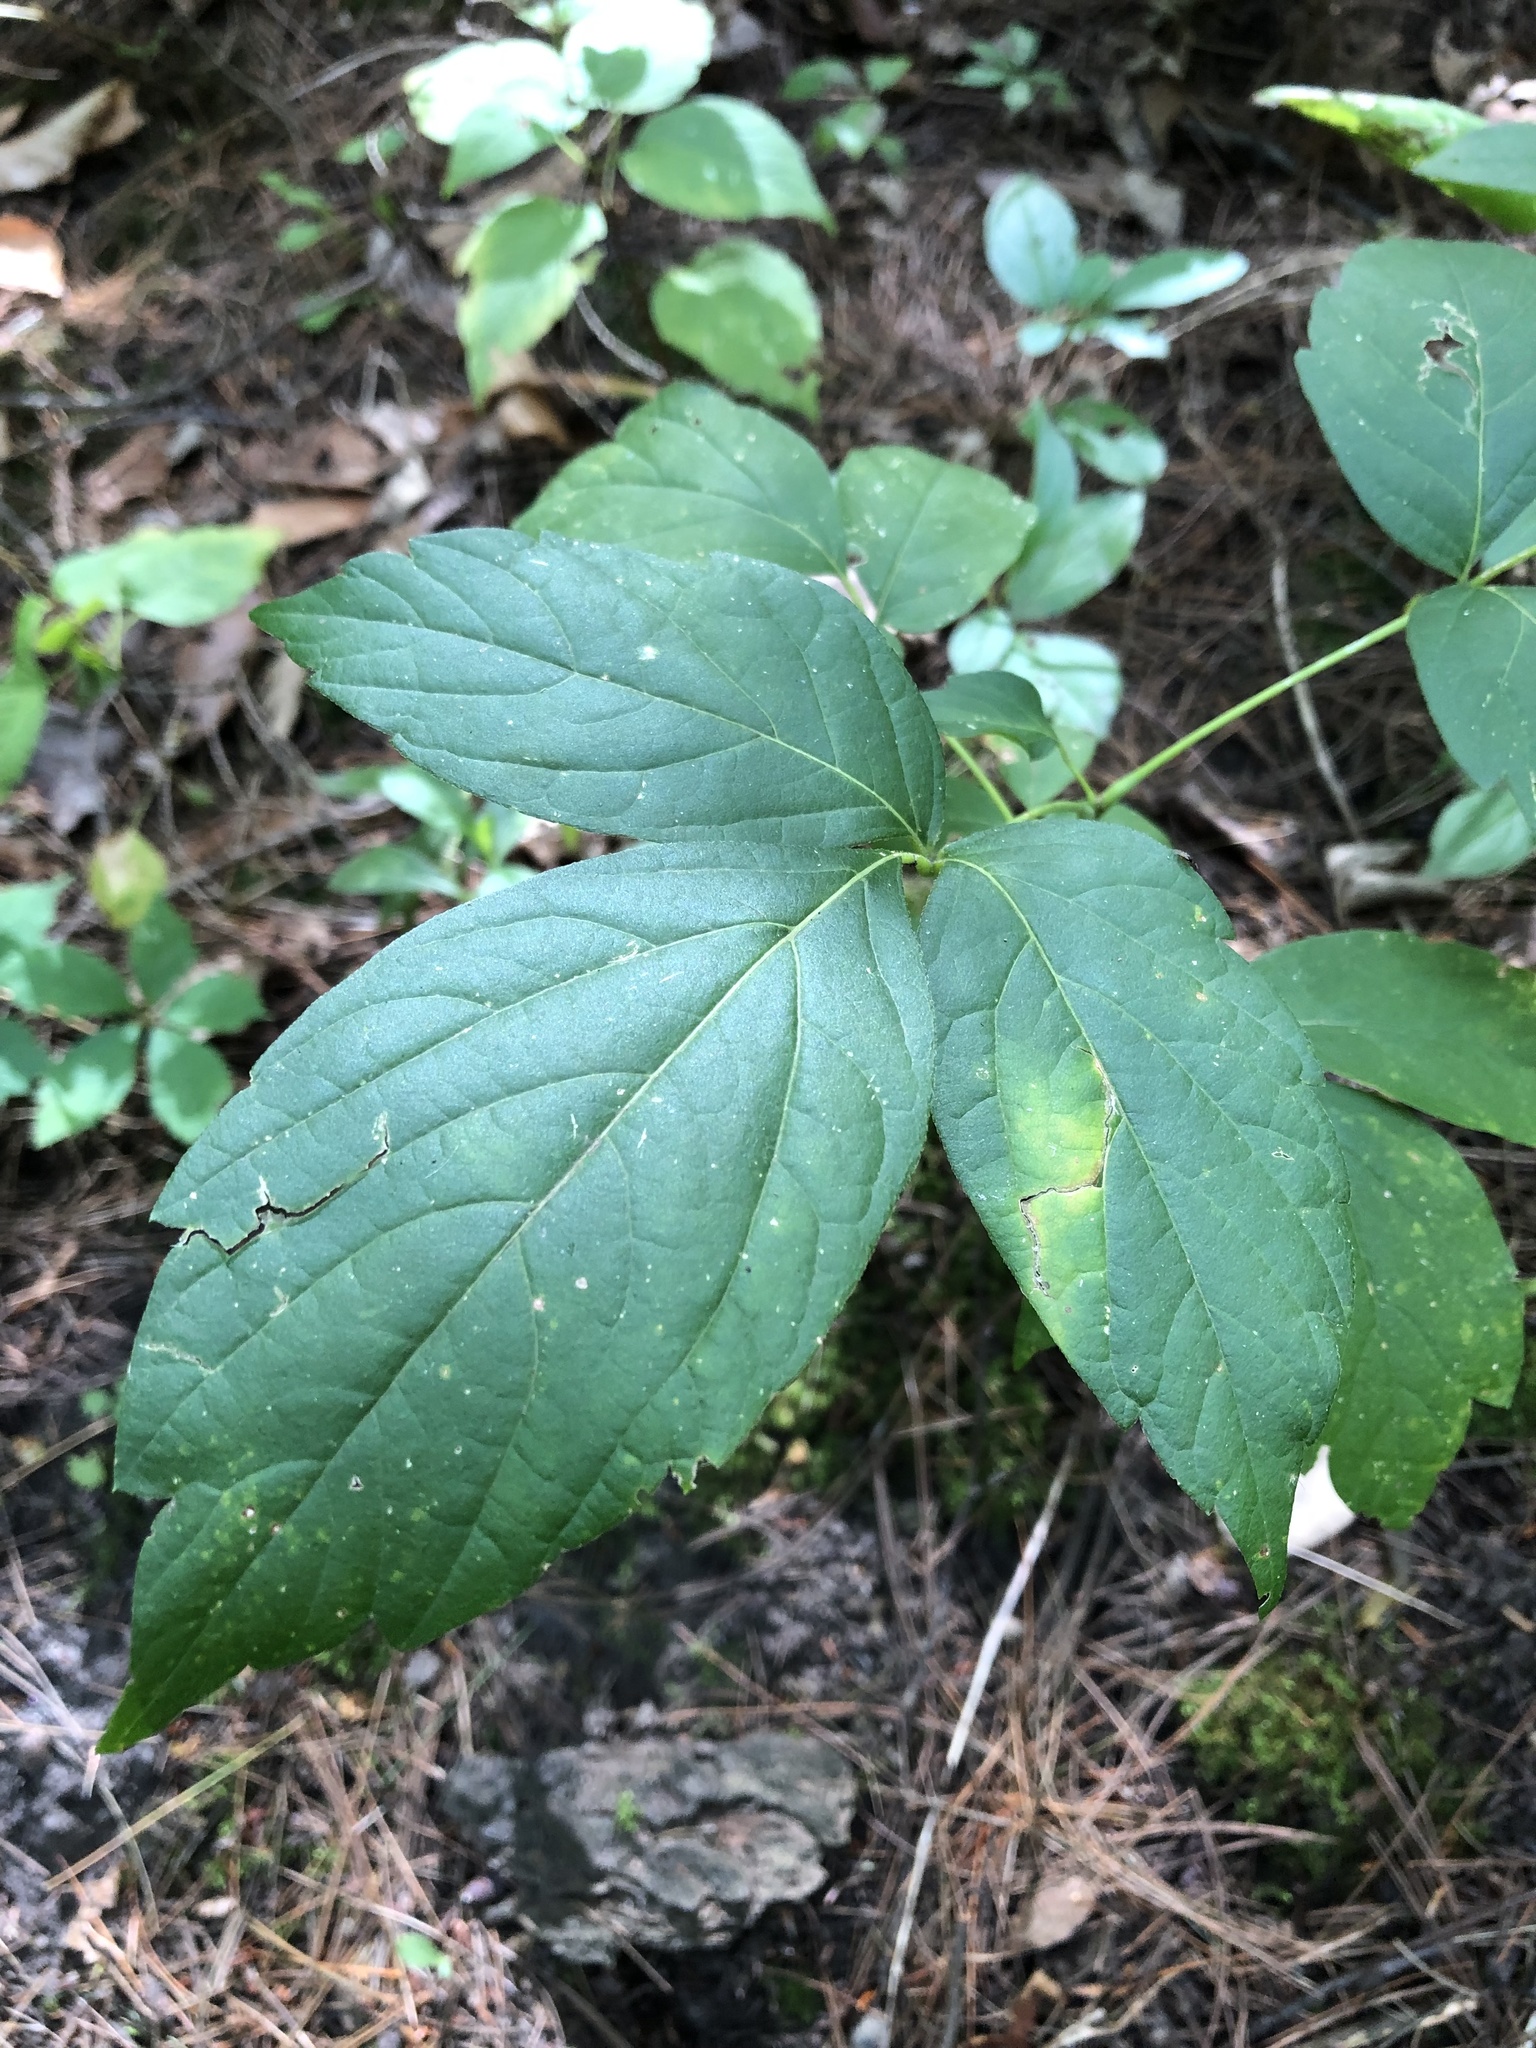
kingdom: Plantae
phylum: Tracheophyta
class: Magnoliopsida
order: Sapindales
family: Sapindaceae
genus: Acer
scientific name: Acer negundo
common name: Ashleaf maple
